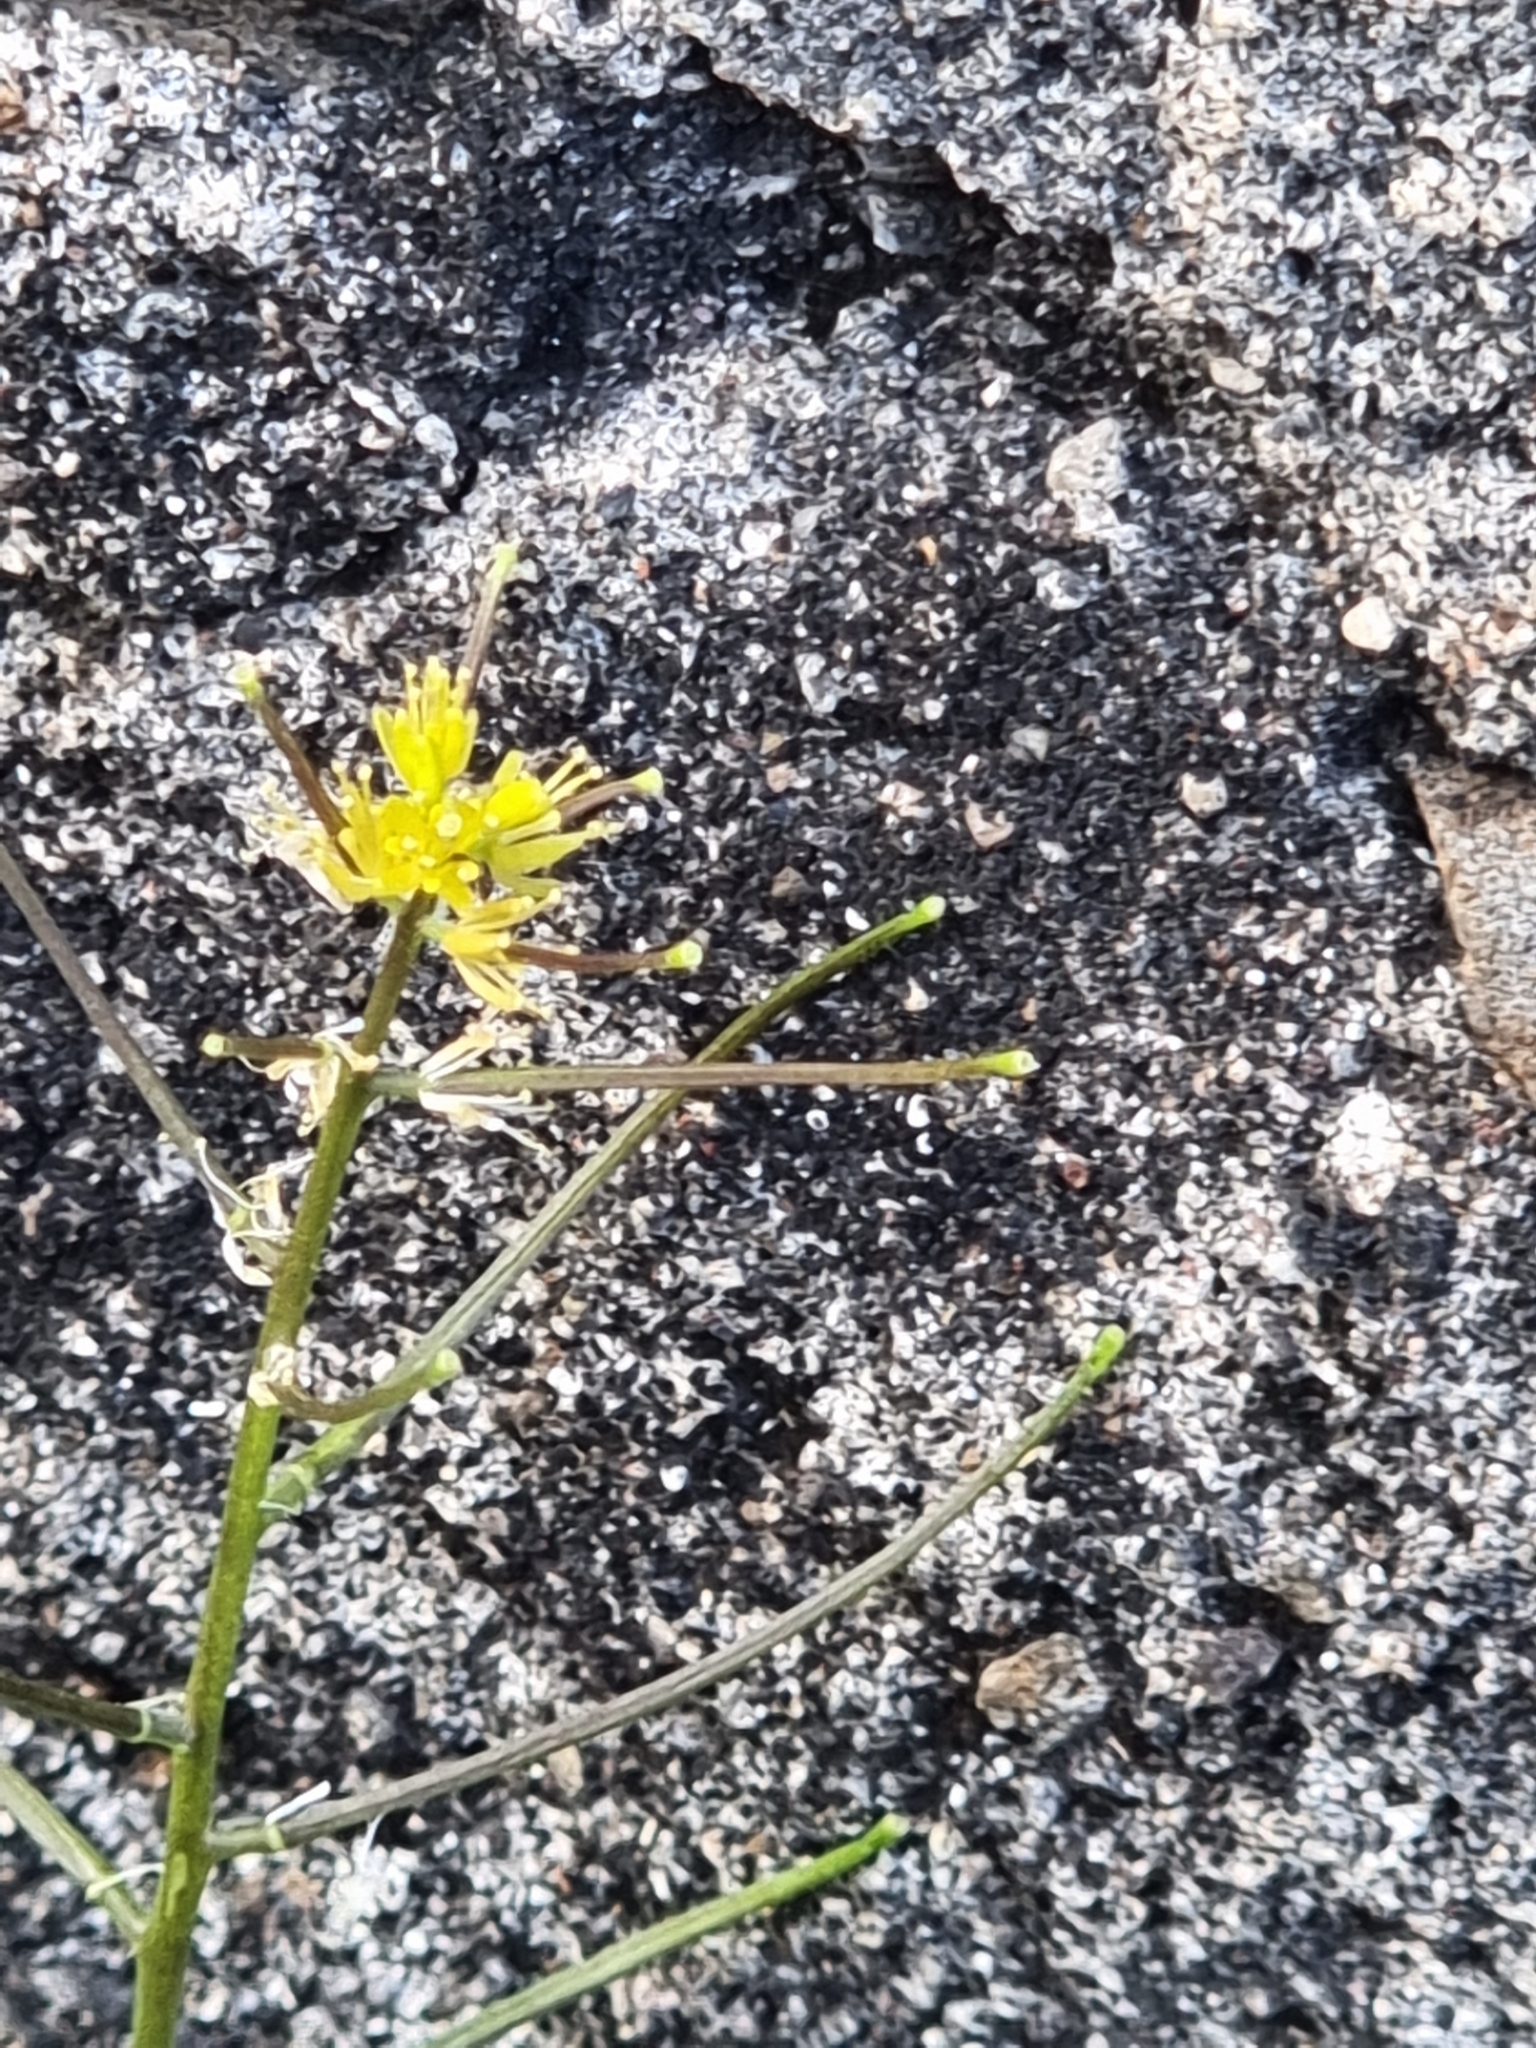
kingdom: Plantae
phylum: Tracheophyta
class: Magnoliopsida
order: Brassicales
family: Brassicaceae
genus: Sisymbrium
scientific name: Sisymbrium erysimoides
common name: French rocket
